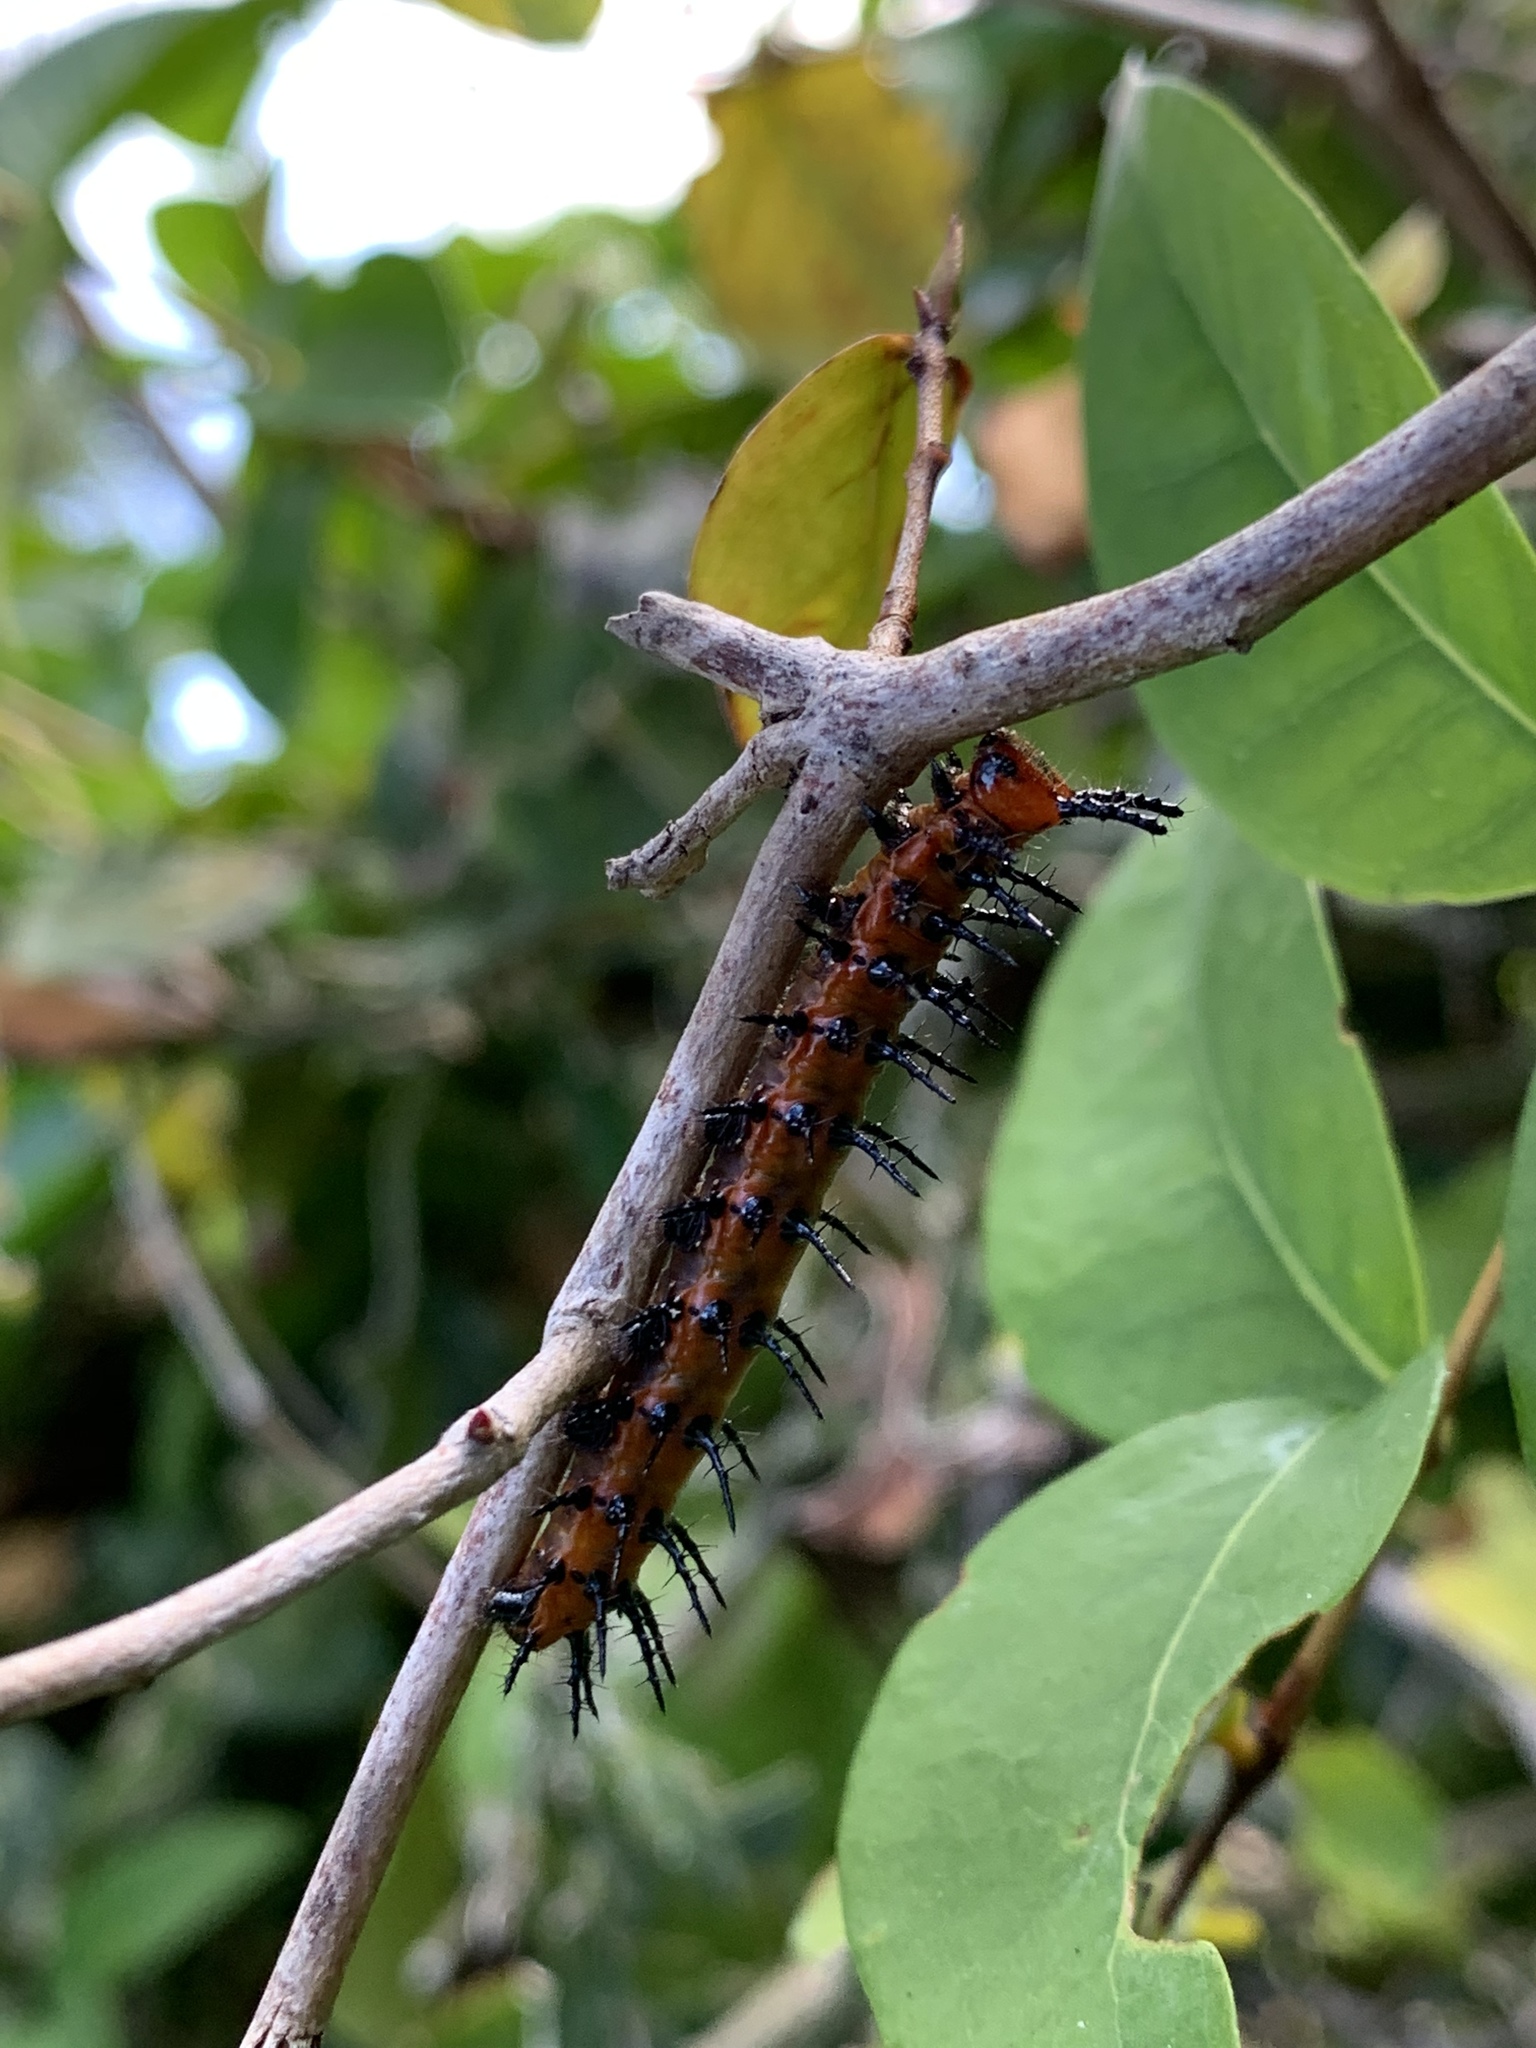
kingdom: Animalia
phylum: Arthropoda
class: Insecta
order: Lepidoptera
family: Nymphalidae
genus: Dione
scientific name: Dione vanillae
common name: Gulf fritillary
